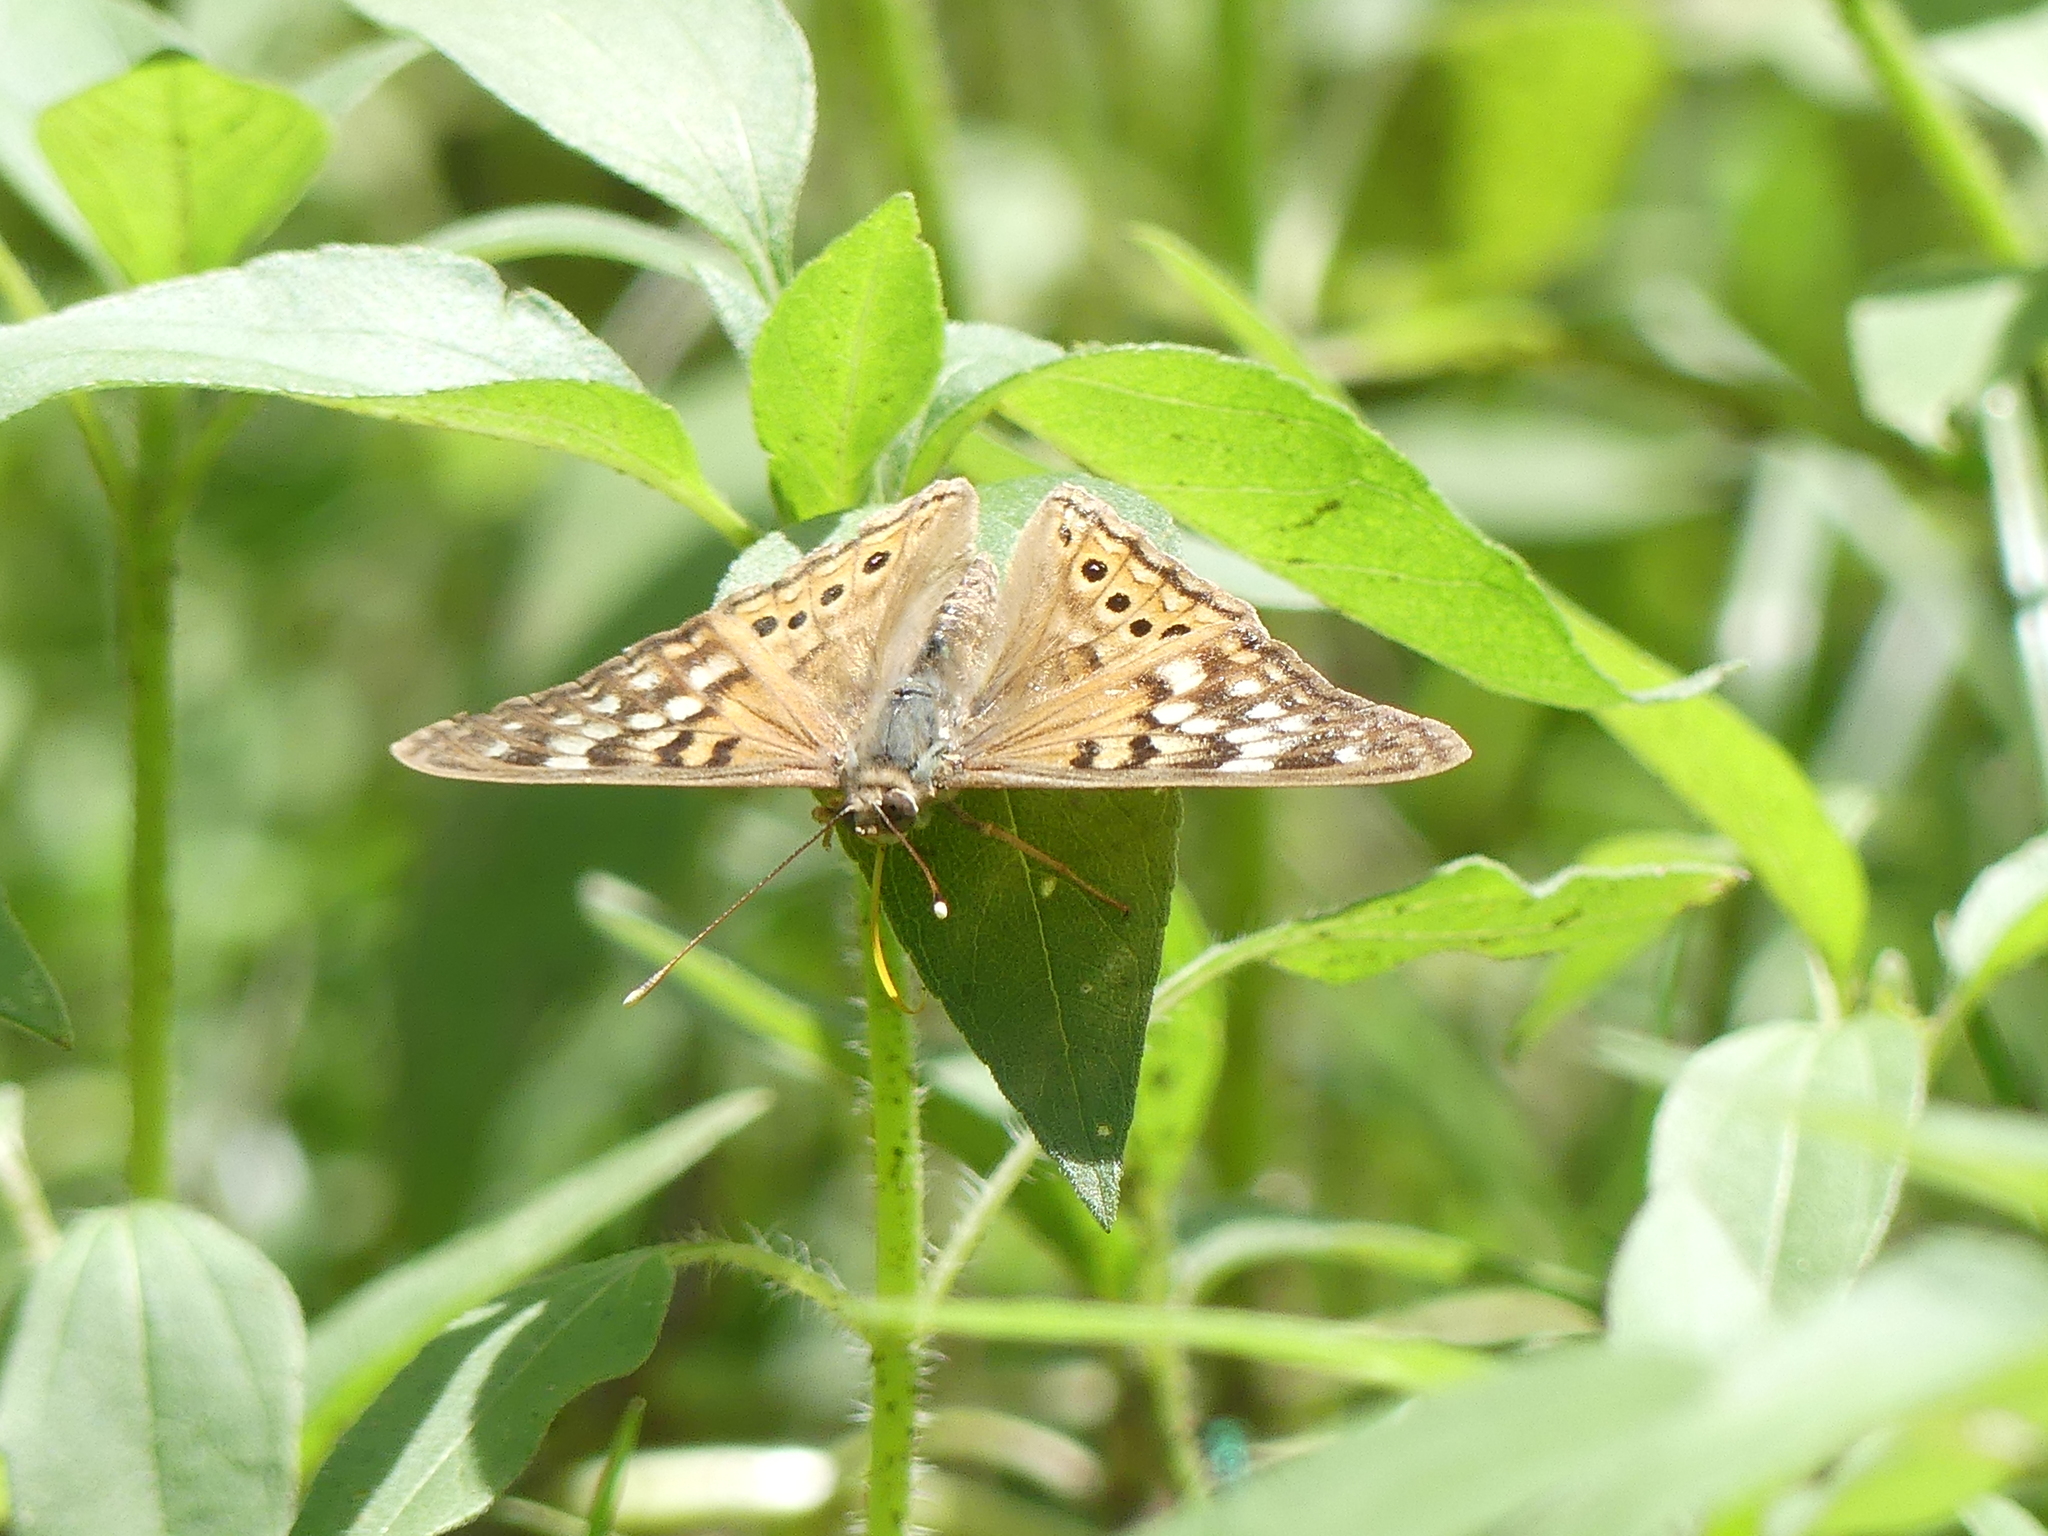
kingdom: Animalia
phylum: Arthropoda
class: Insecta
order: Lepidoptera
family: Nymphalidae
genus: Asterocampa
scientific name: Asterocampa clyton
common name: Tawny emperor
